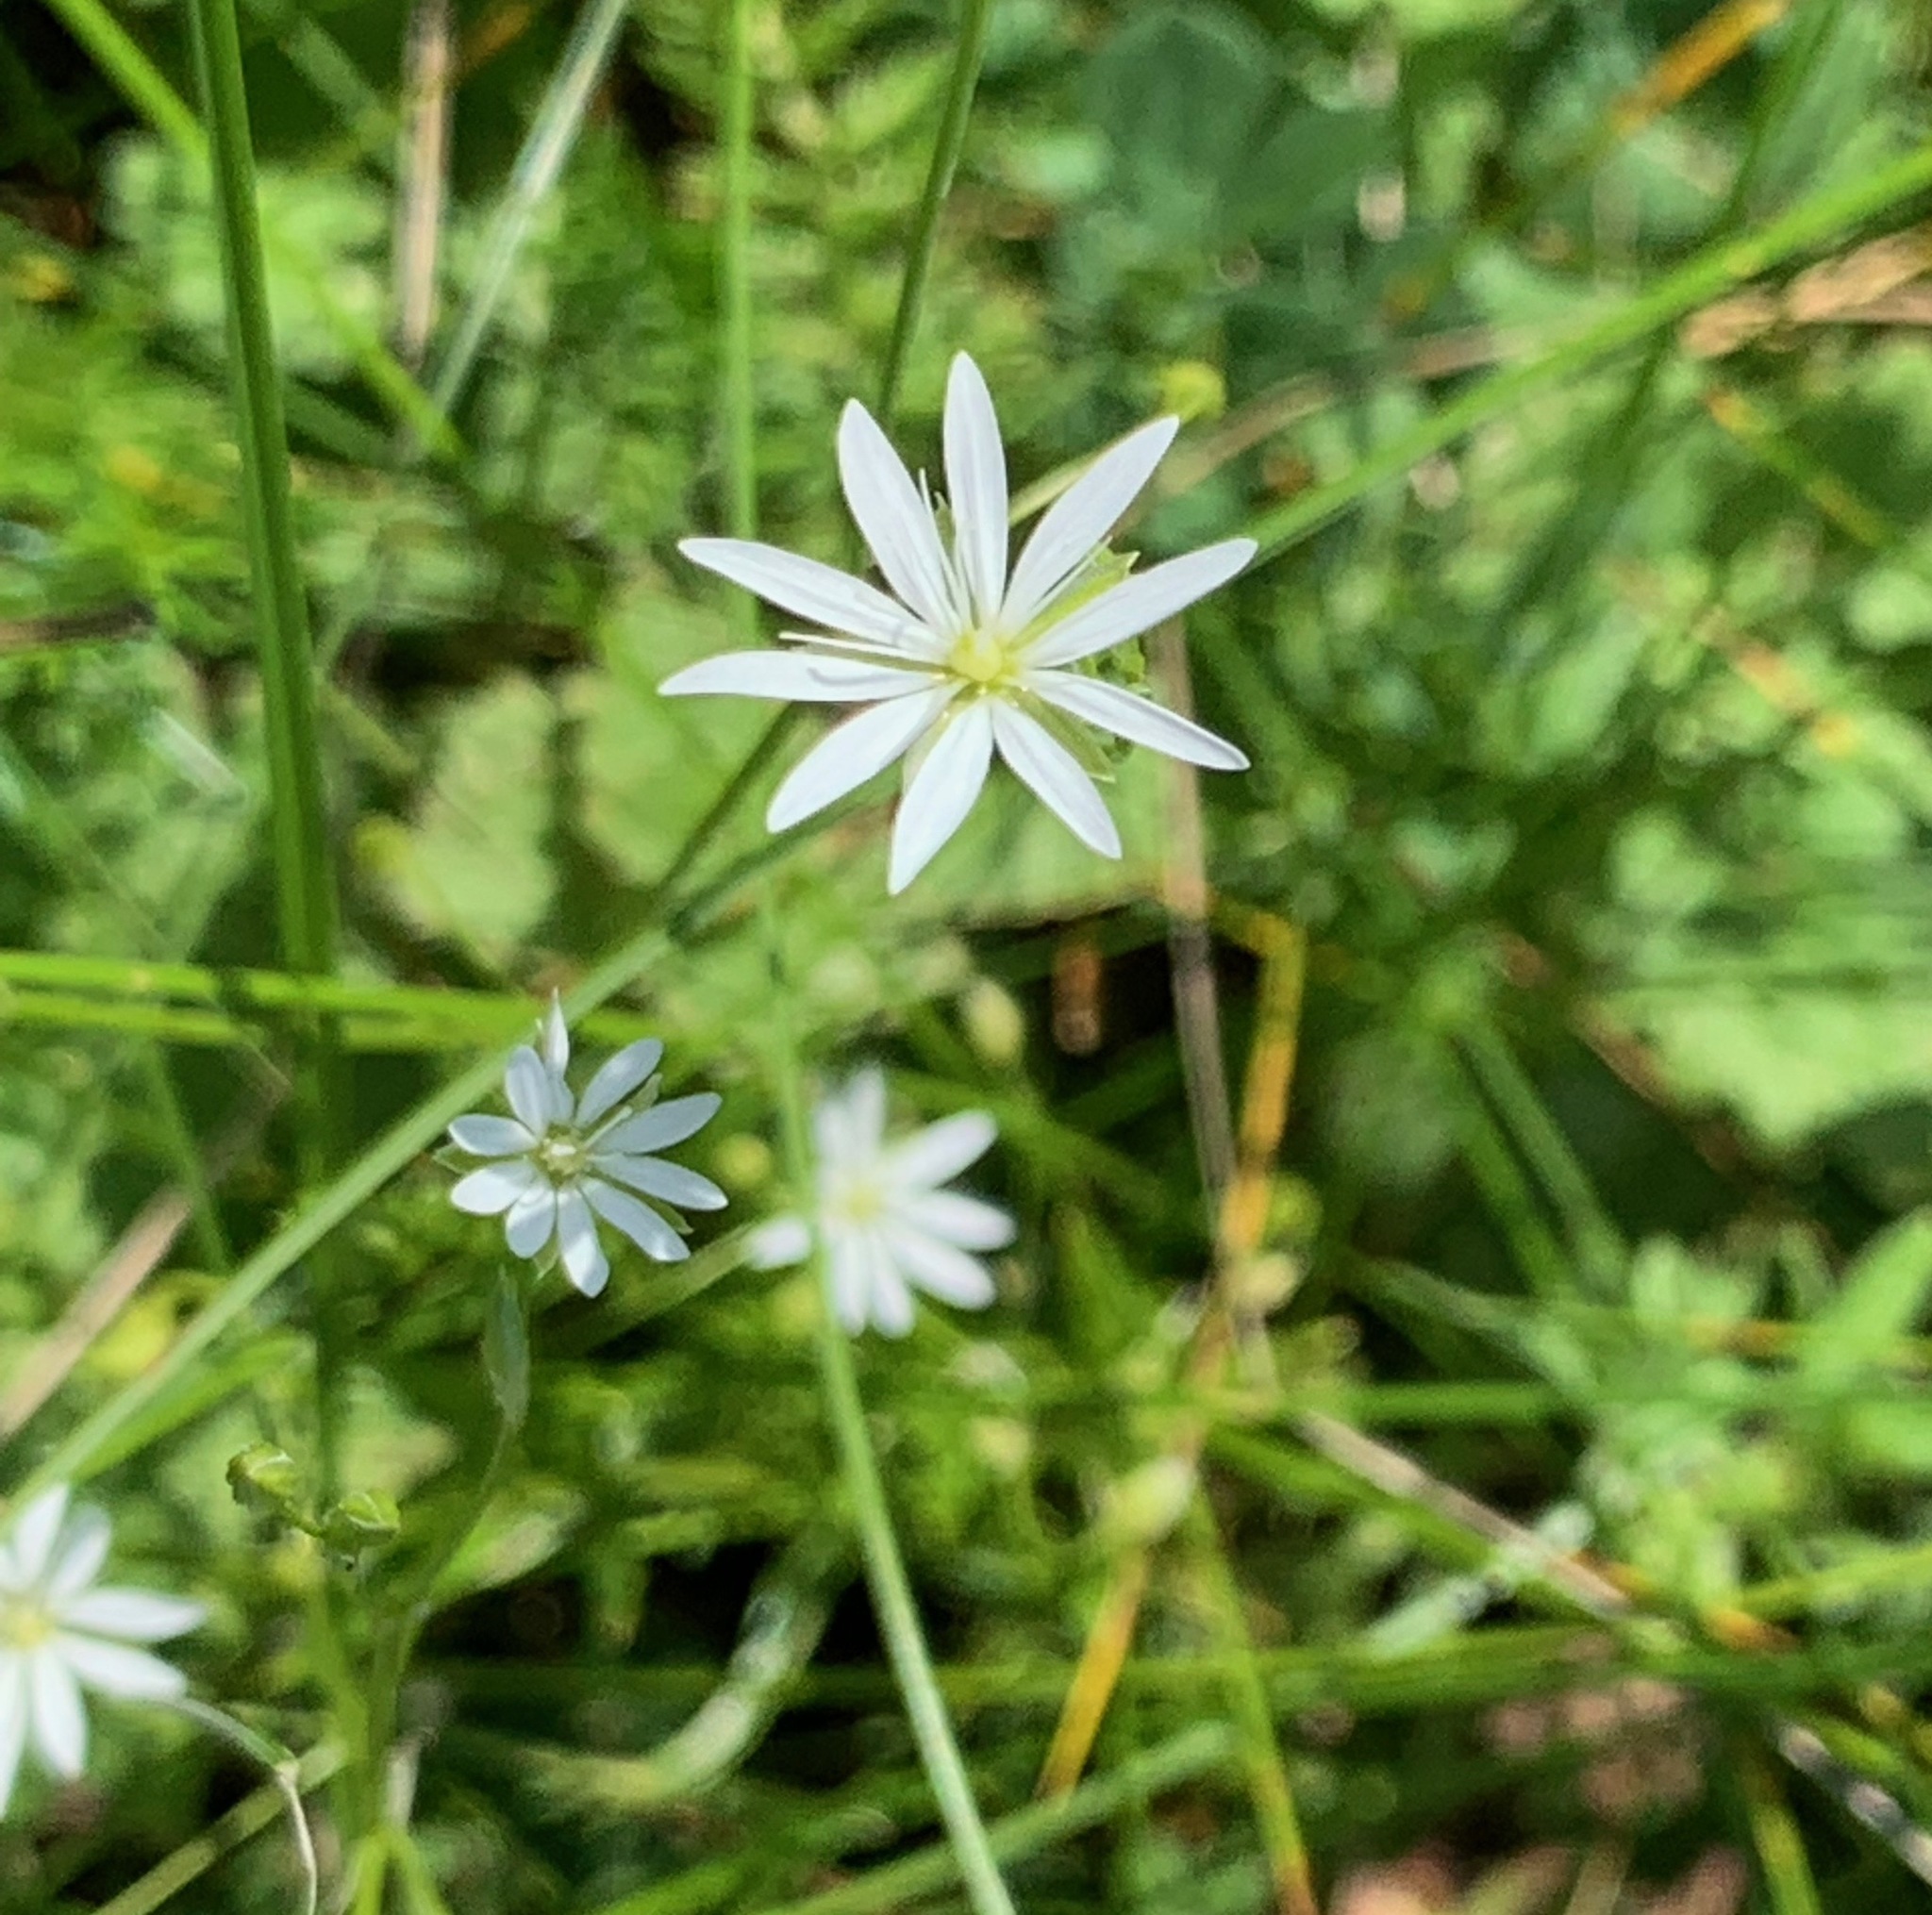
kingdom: Plantae
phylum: Tracheophyta
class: Magnoliopsida
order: Caryophyllales
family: Caryophyllaceae
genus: Stellaria
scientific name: Stellaria graminea
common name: Grass-like starwort
